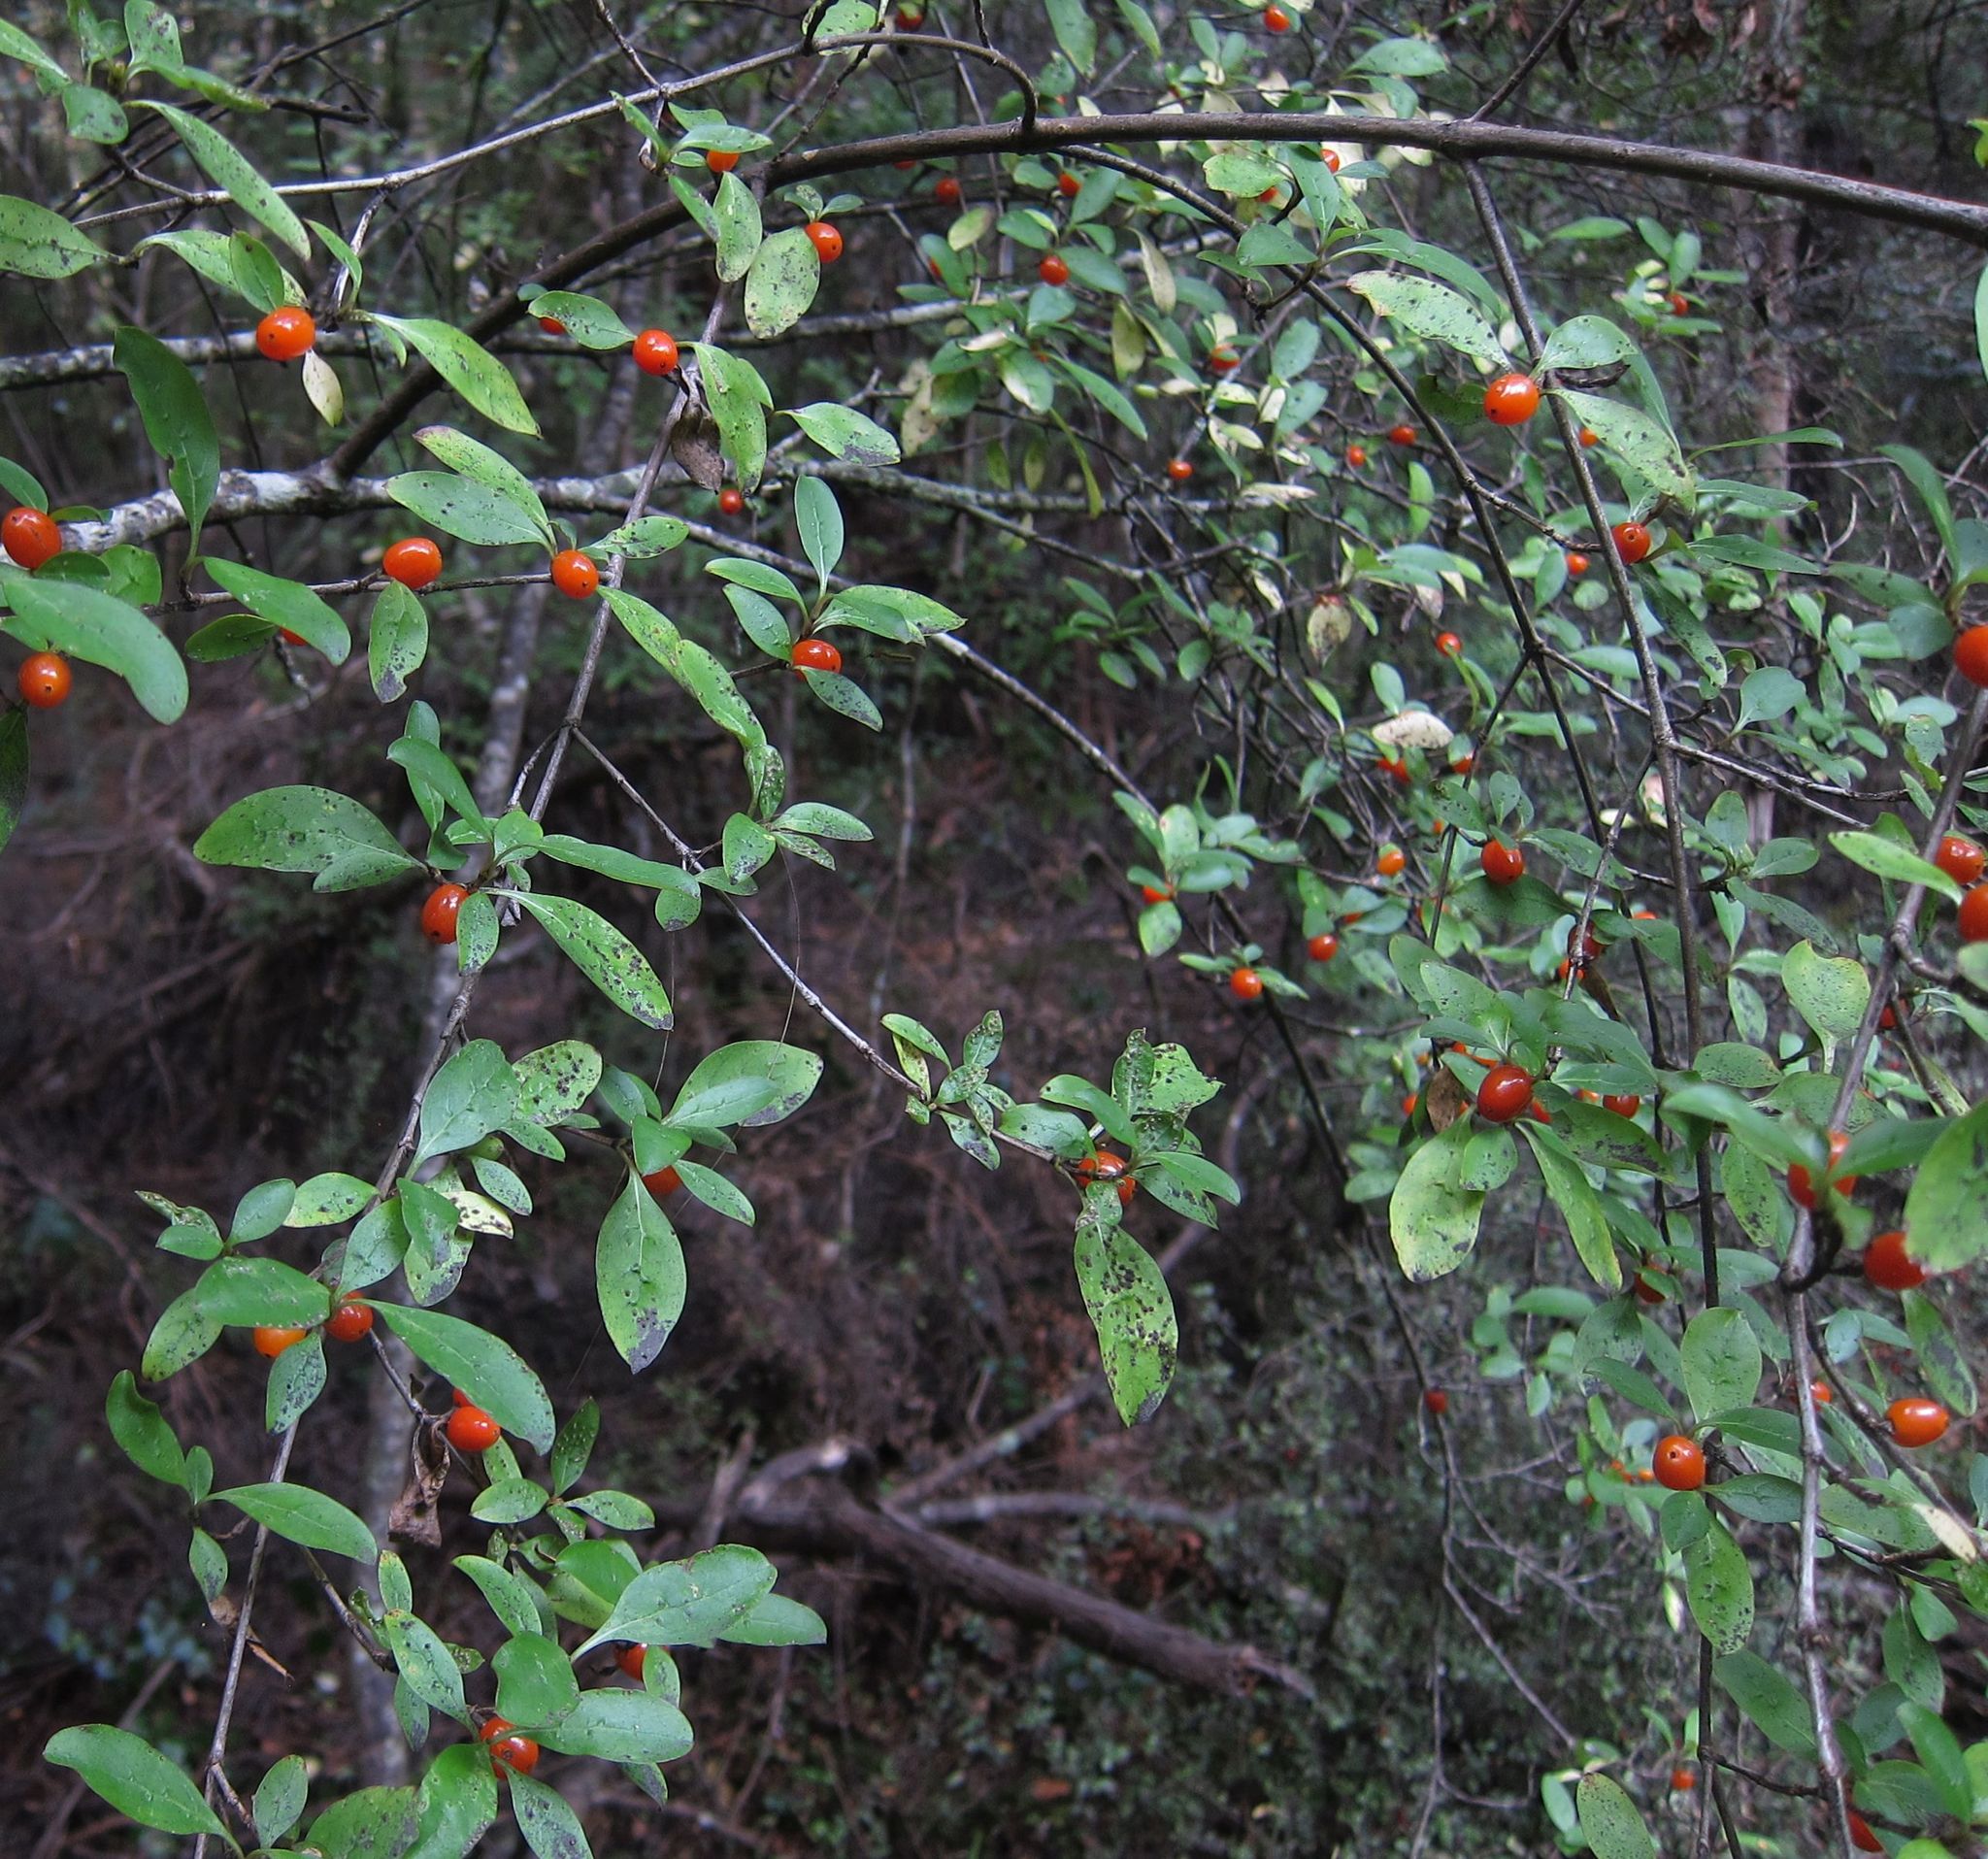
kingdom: Plantae
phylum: Tracheophyta
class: Magnoliopsida
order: Gentianales
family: Rubiaceae
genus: Coprosma
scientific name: Coprosma foetidissima
